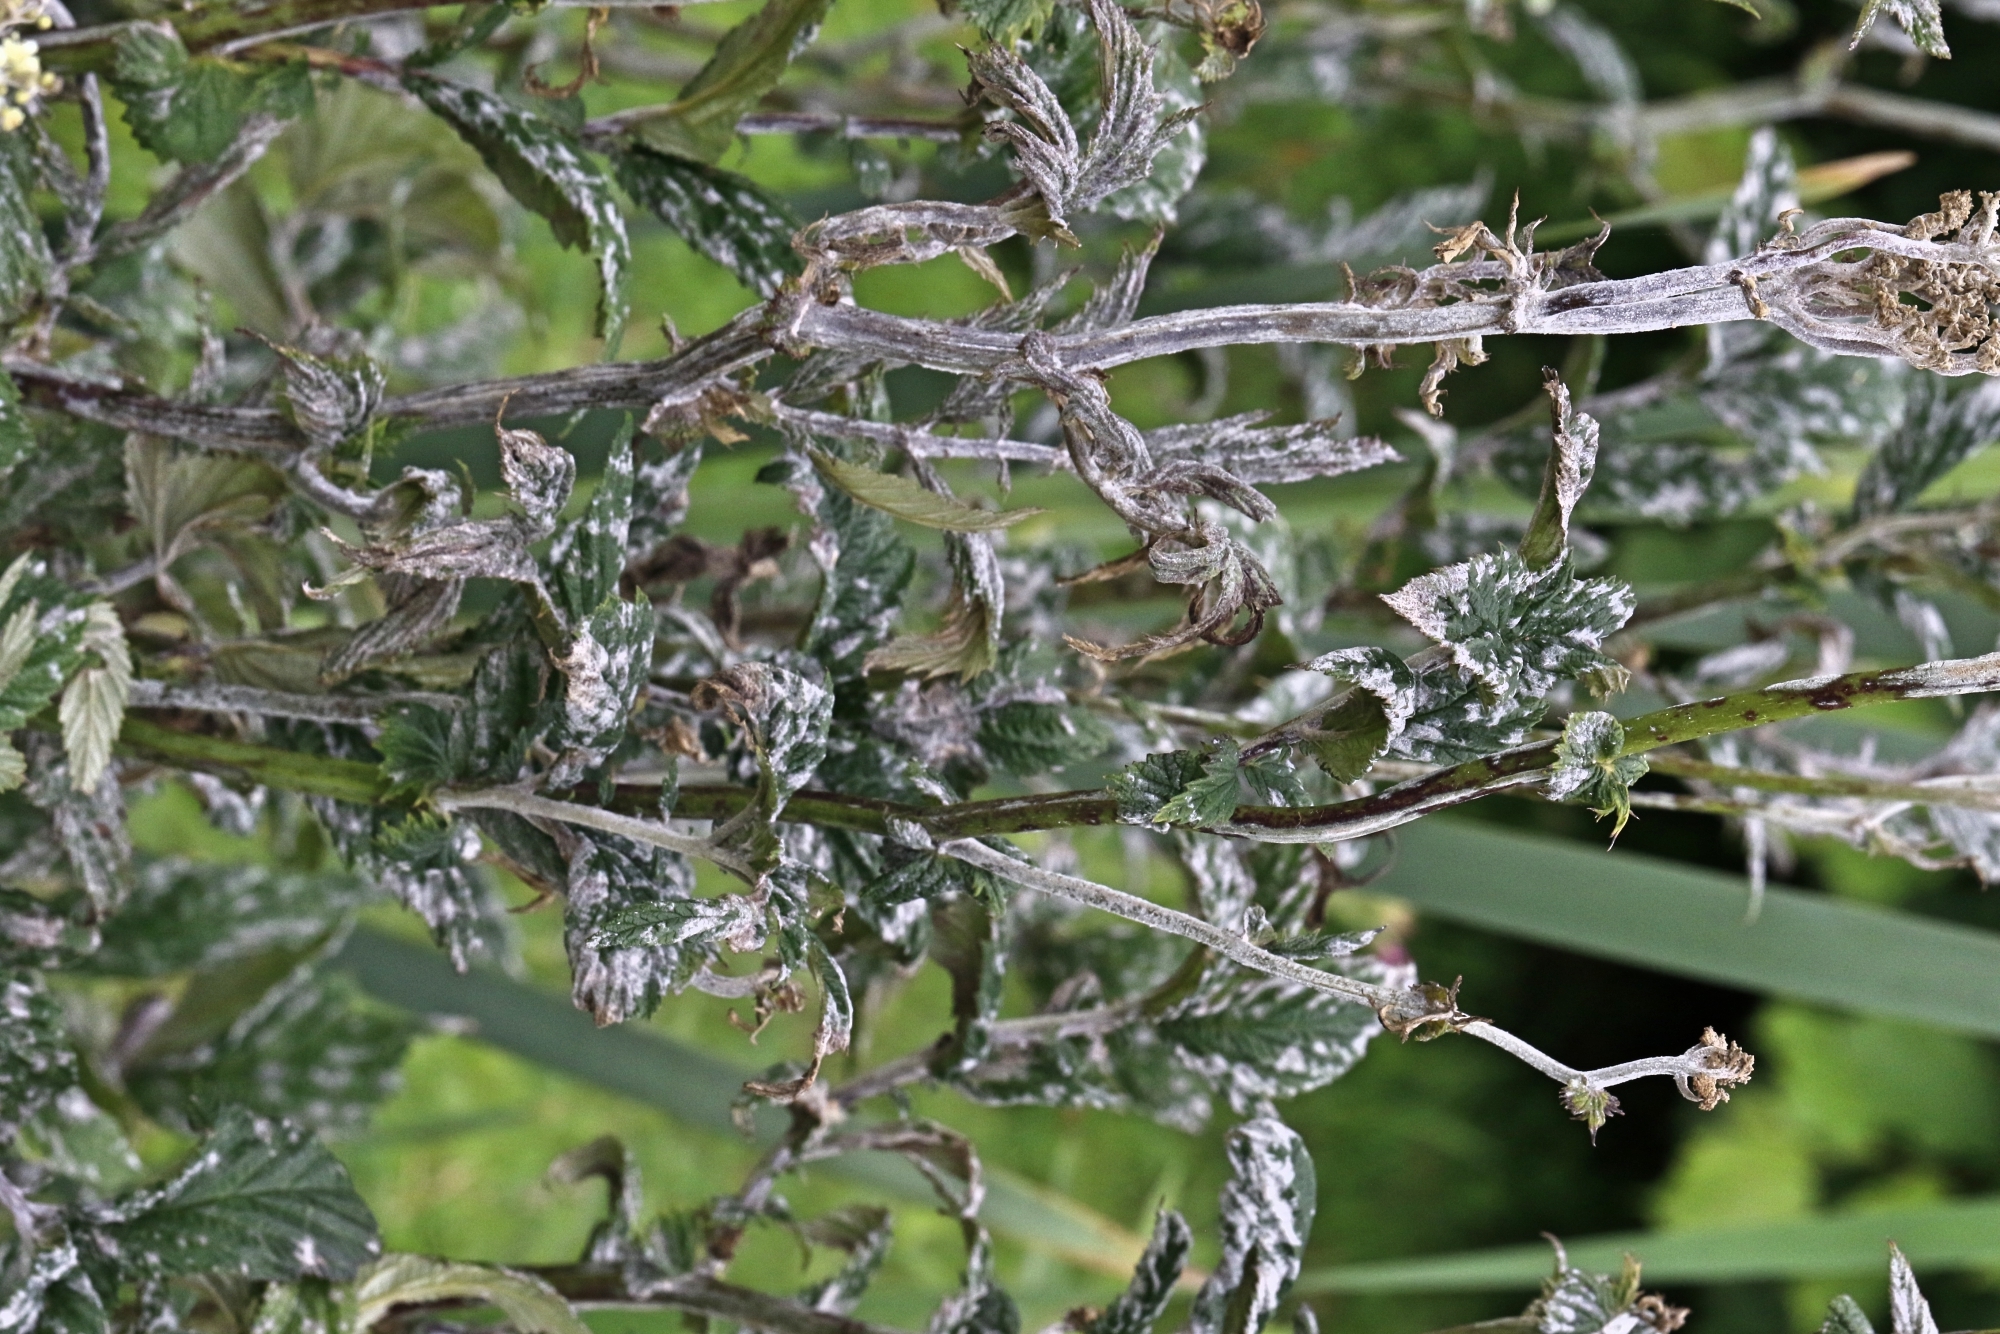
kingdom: Fungi
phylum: Ascomycota
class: Leotiomycetes
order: Helotiales
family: Erysiphaceae
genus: Podosphaera
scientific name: Podosphaera filipendulae
